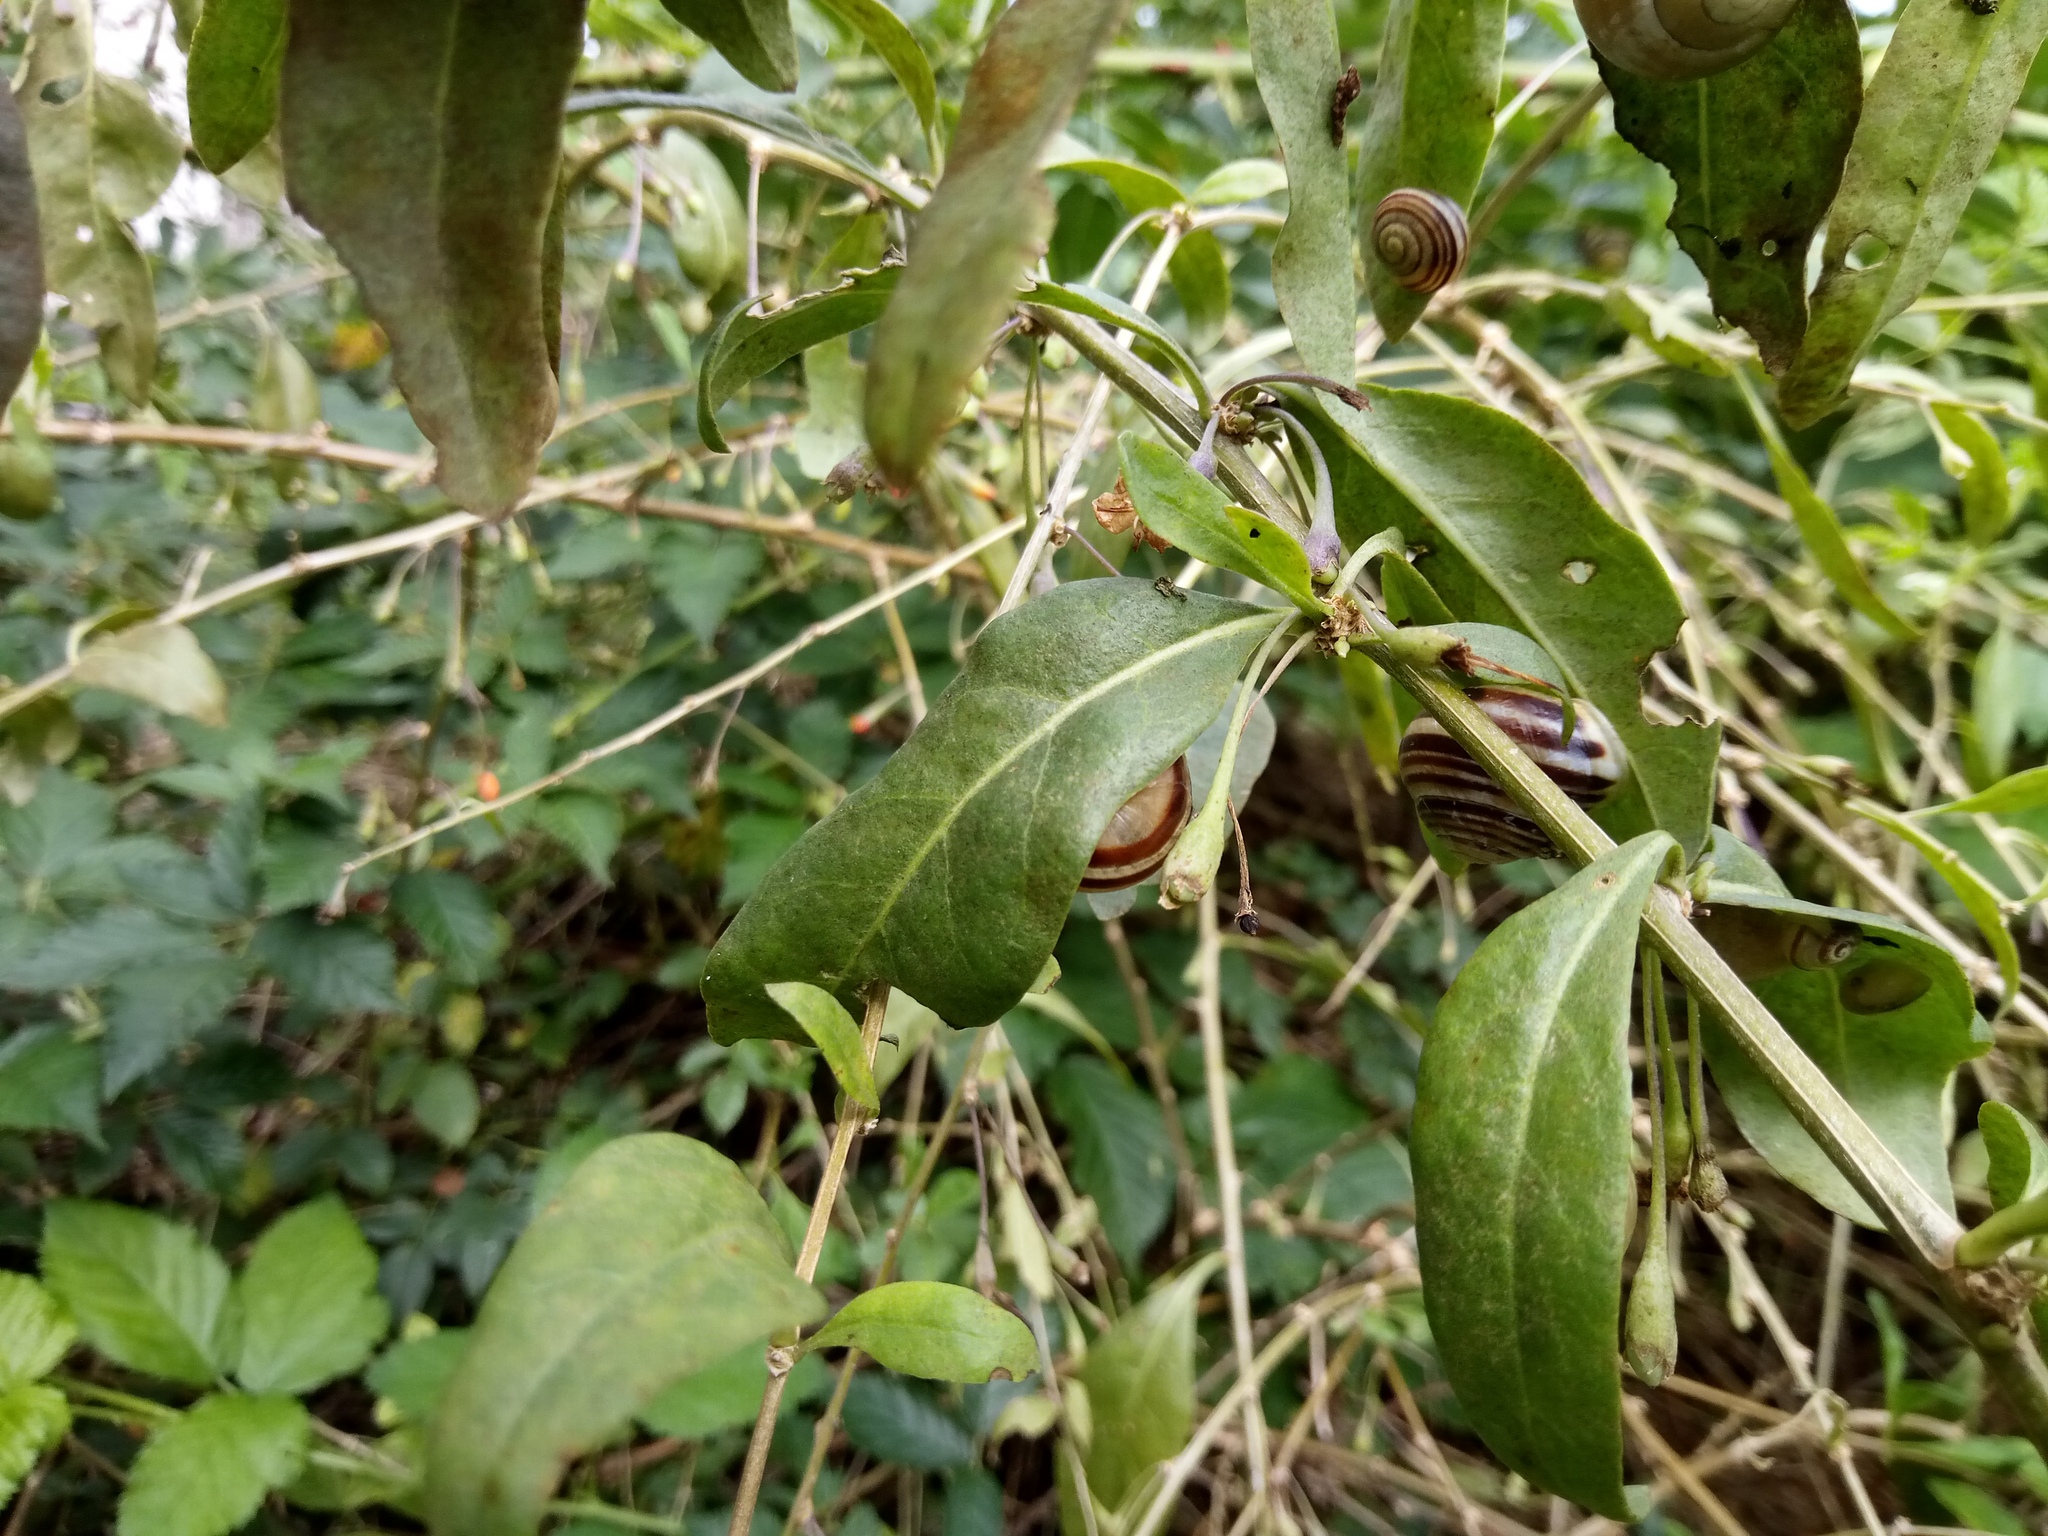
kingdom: Animalia
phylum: Mollusca
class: Gastropoda
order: Stylommatophora
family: Helicidae
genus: Cepaea
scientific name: Cepaea hortensis
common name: White-lip gardensnail
